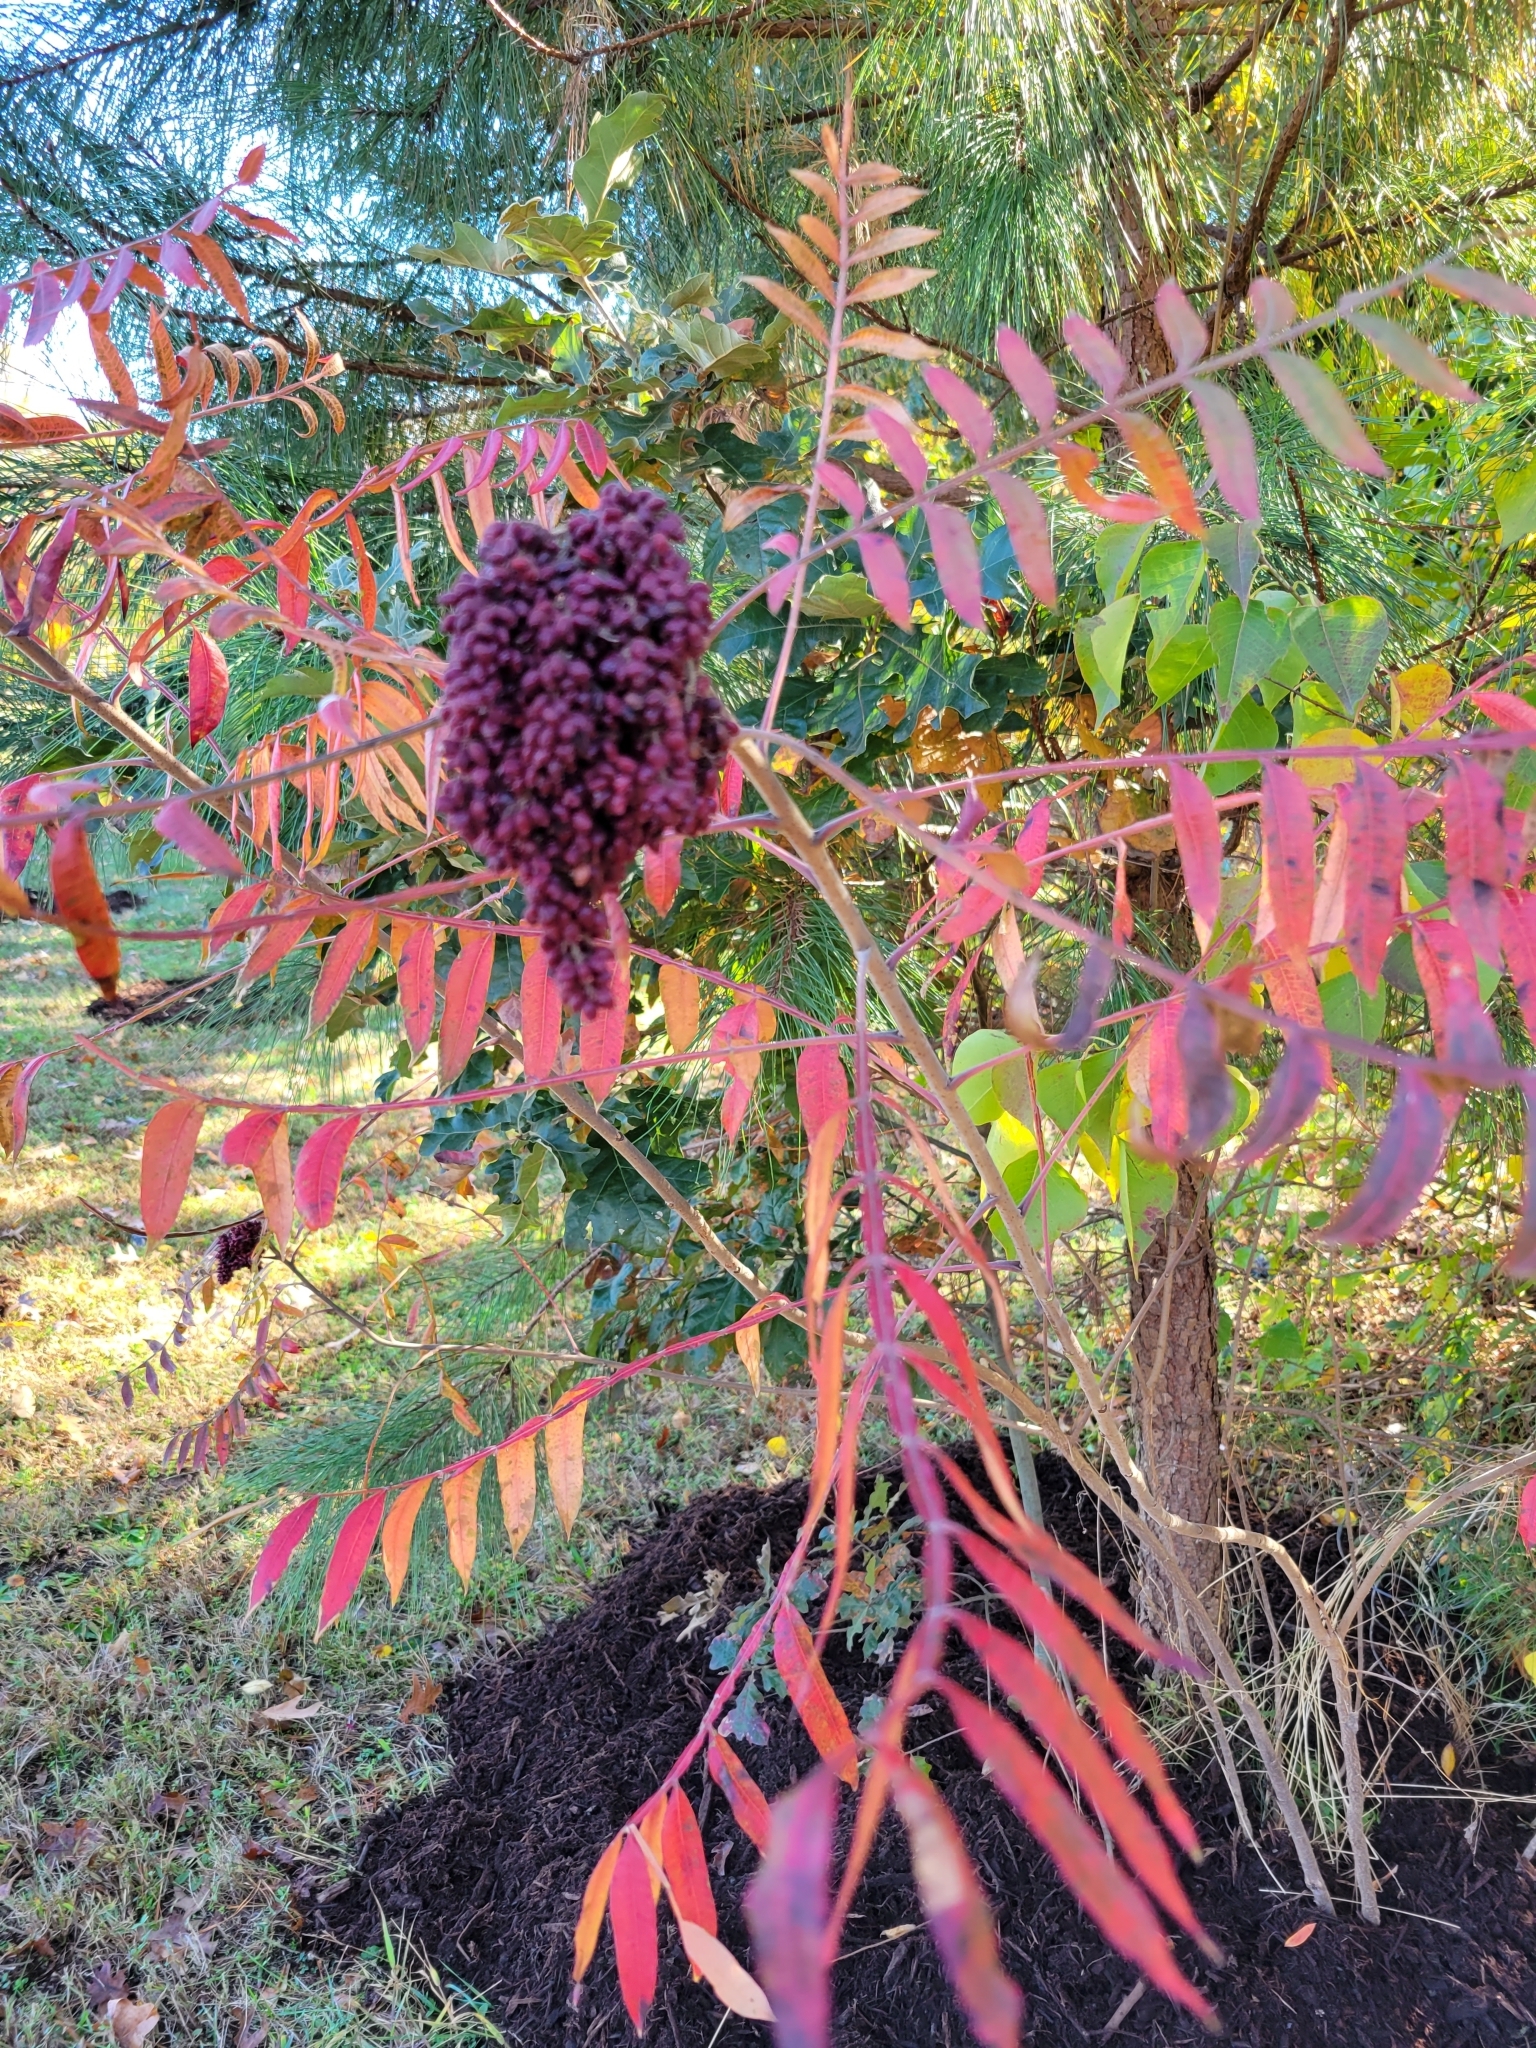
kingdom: Plantae
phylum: Tracheophyta
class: Magnoliopsida
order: Sapindales
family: Anacardiaceae
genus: Rhus
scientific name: Rhus copallina
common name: Shining sumac
